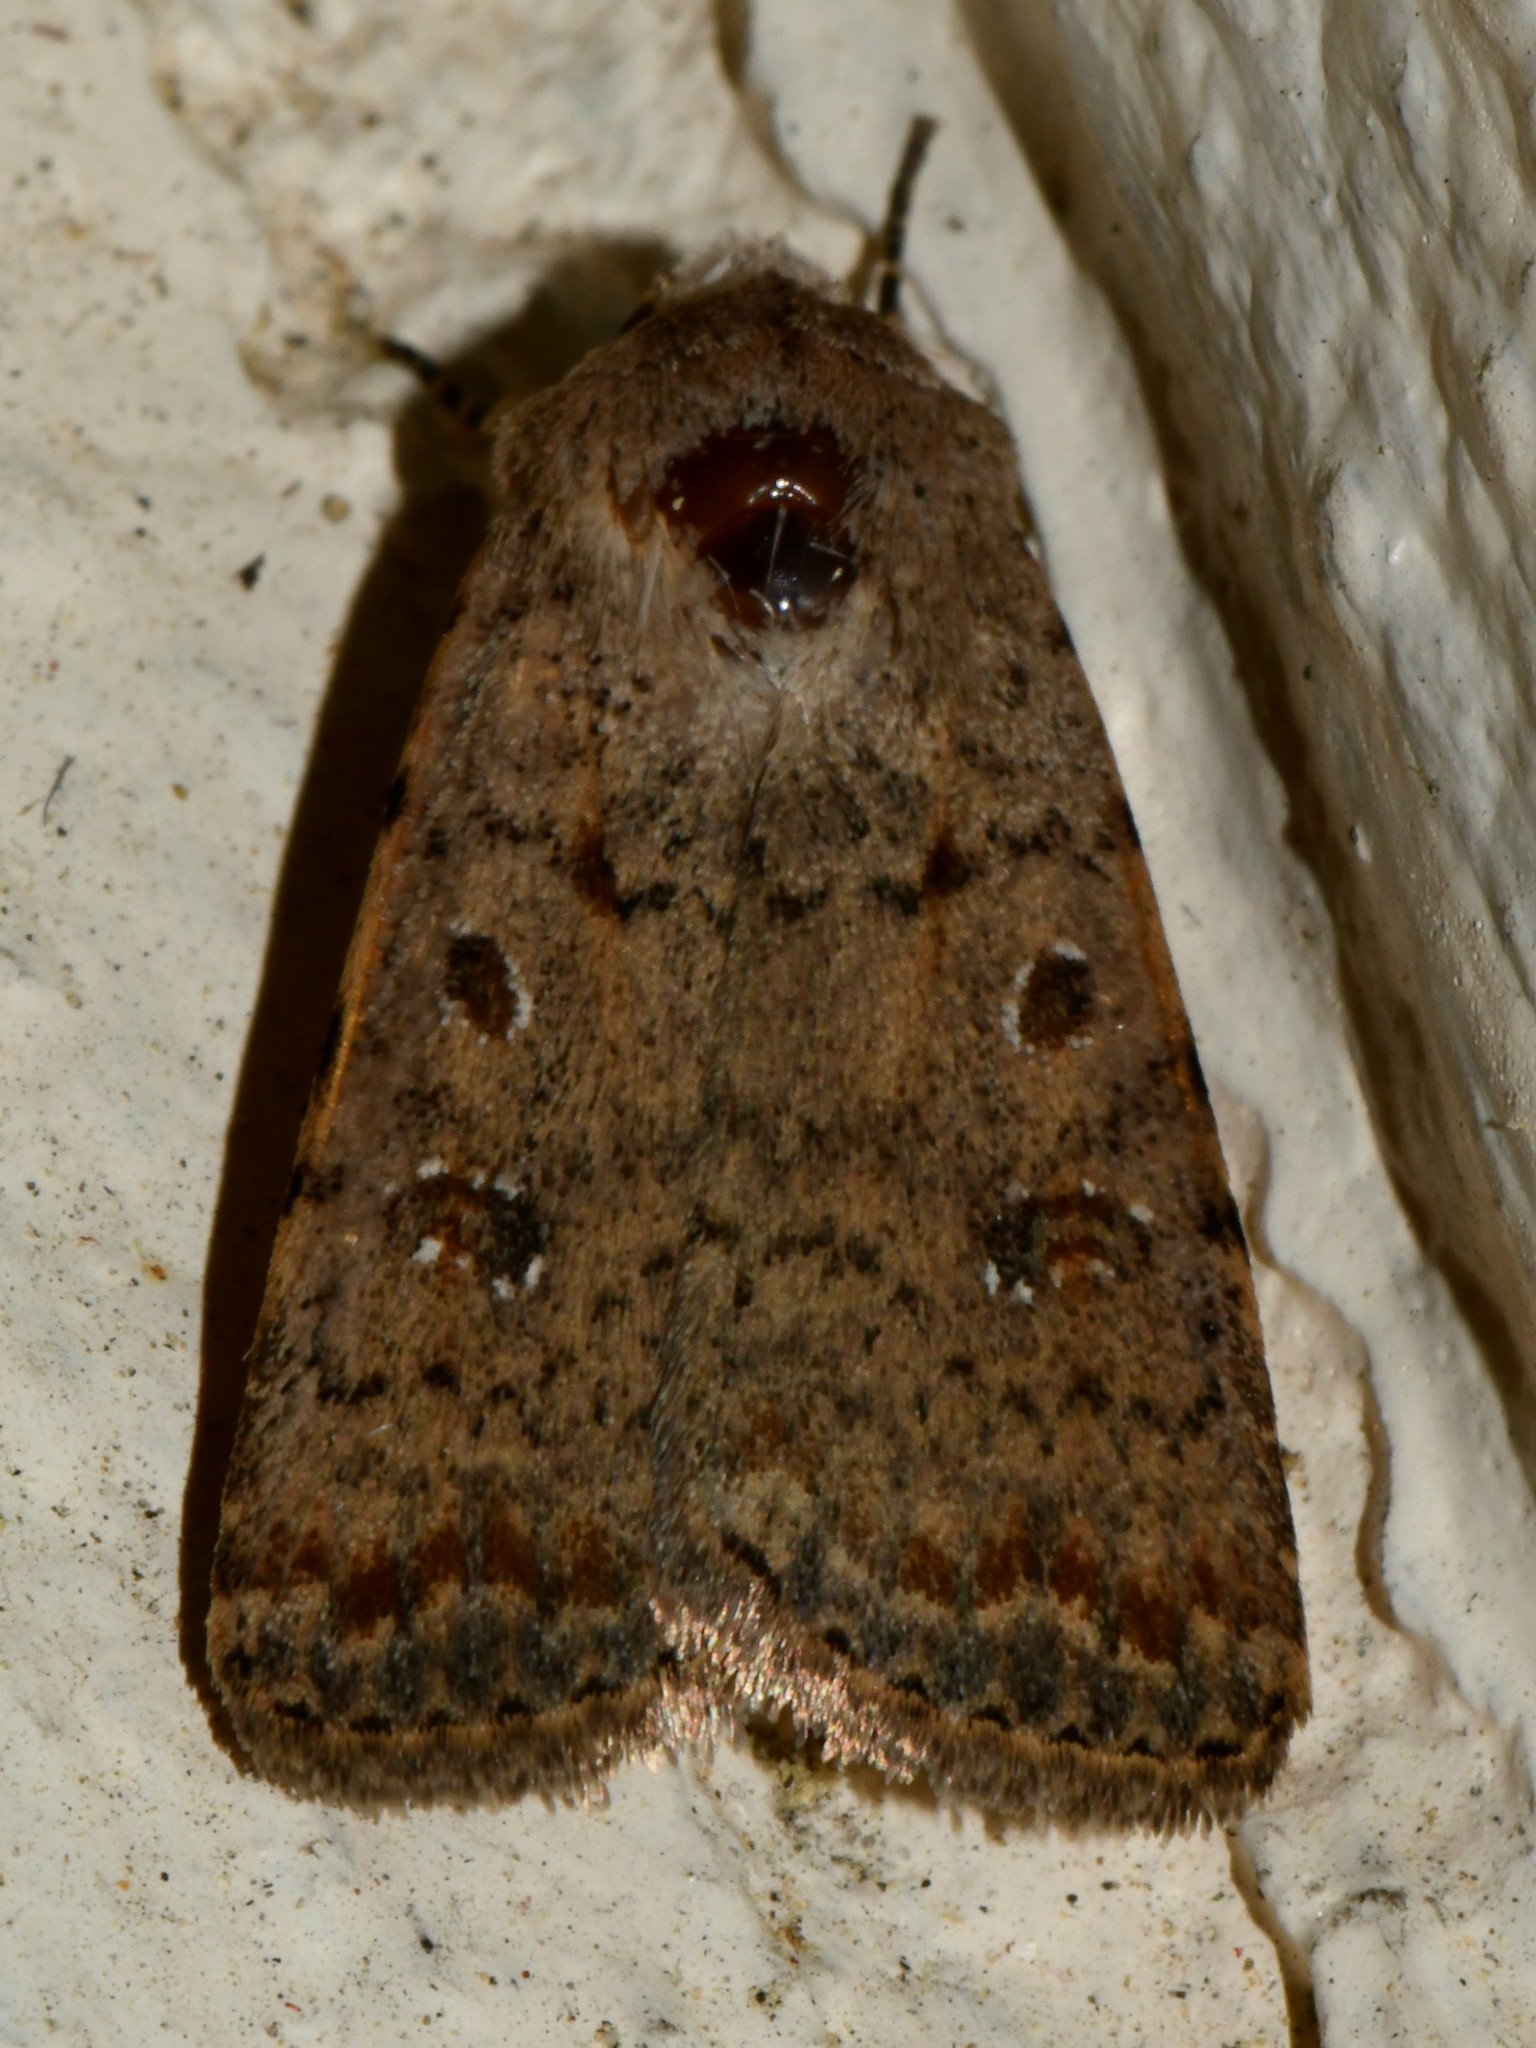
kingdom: Animalia
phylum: Arthropoda
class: Insecta
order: Lepidoptera
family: Noctuidae
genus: Caradrina
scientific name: Caradrina clavipalpis
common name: Pale mottled willow
